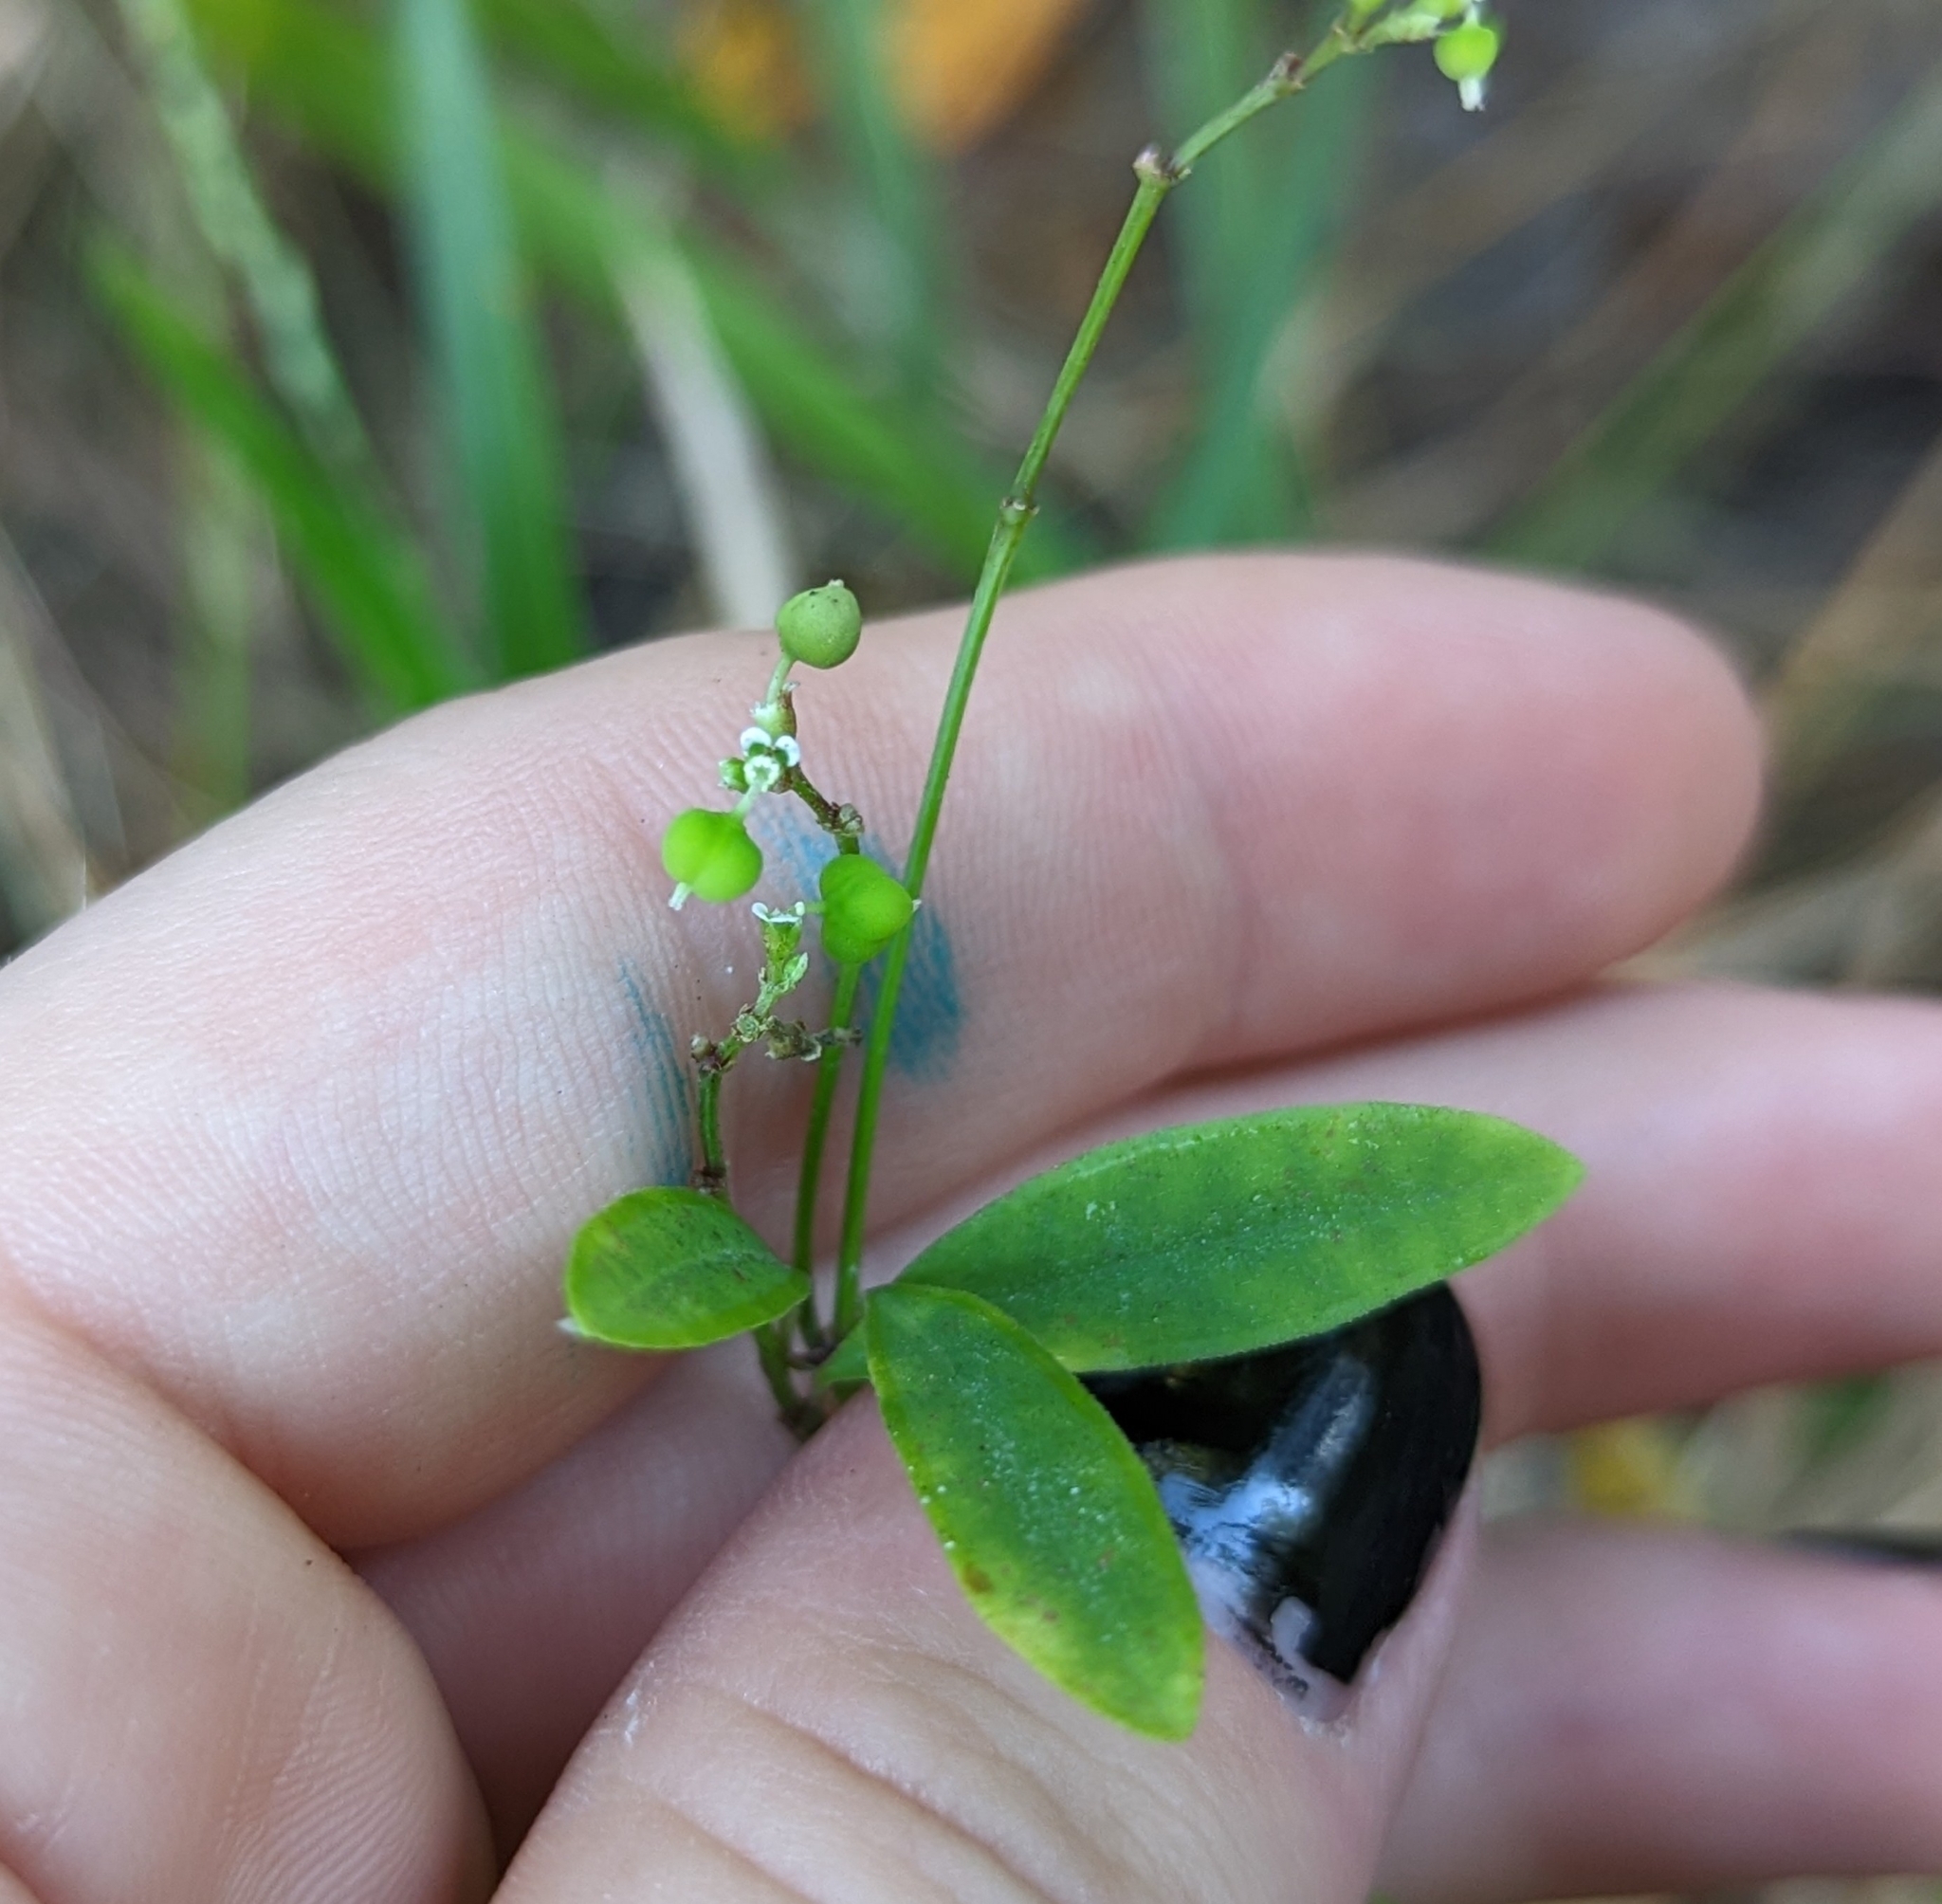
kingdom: Plantae
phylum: Tracheophyta
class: Magnoliopsida
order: Malpighiales
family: Euphorbiaceae
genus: Euphorbia
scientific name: Euphorbia graminea
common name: Grassleaf spurge
